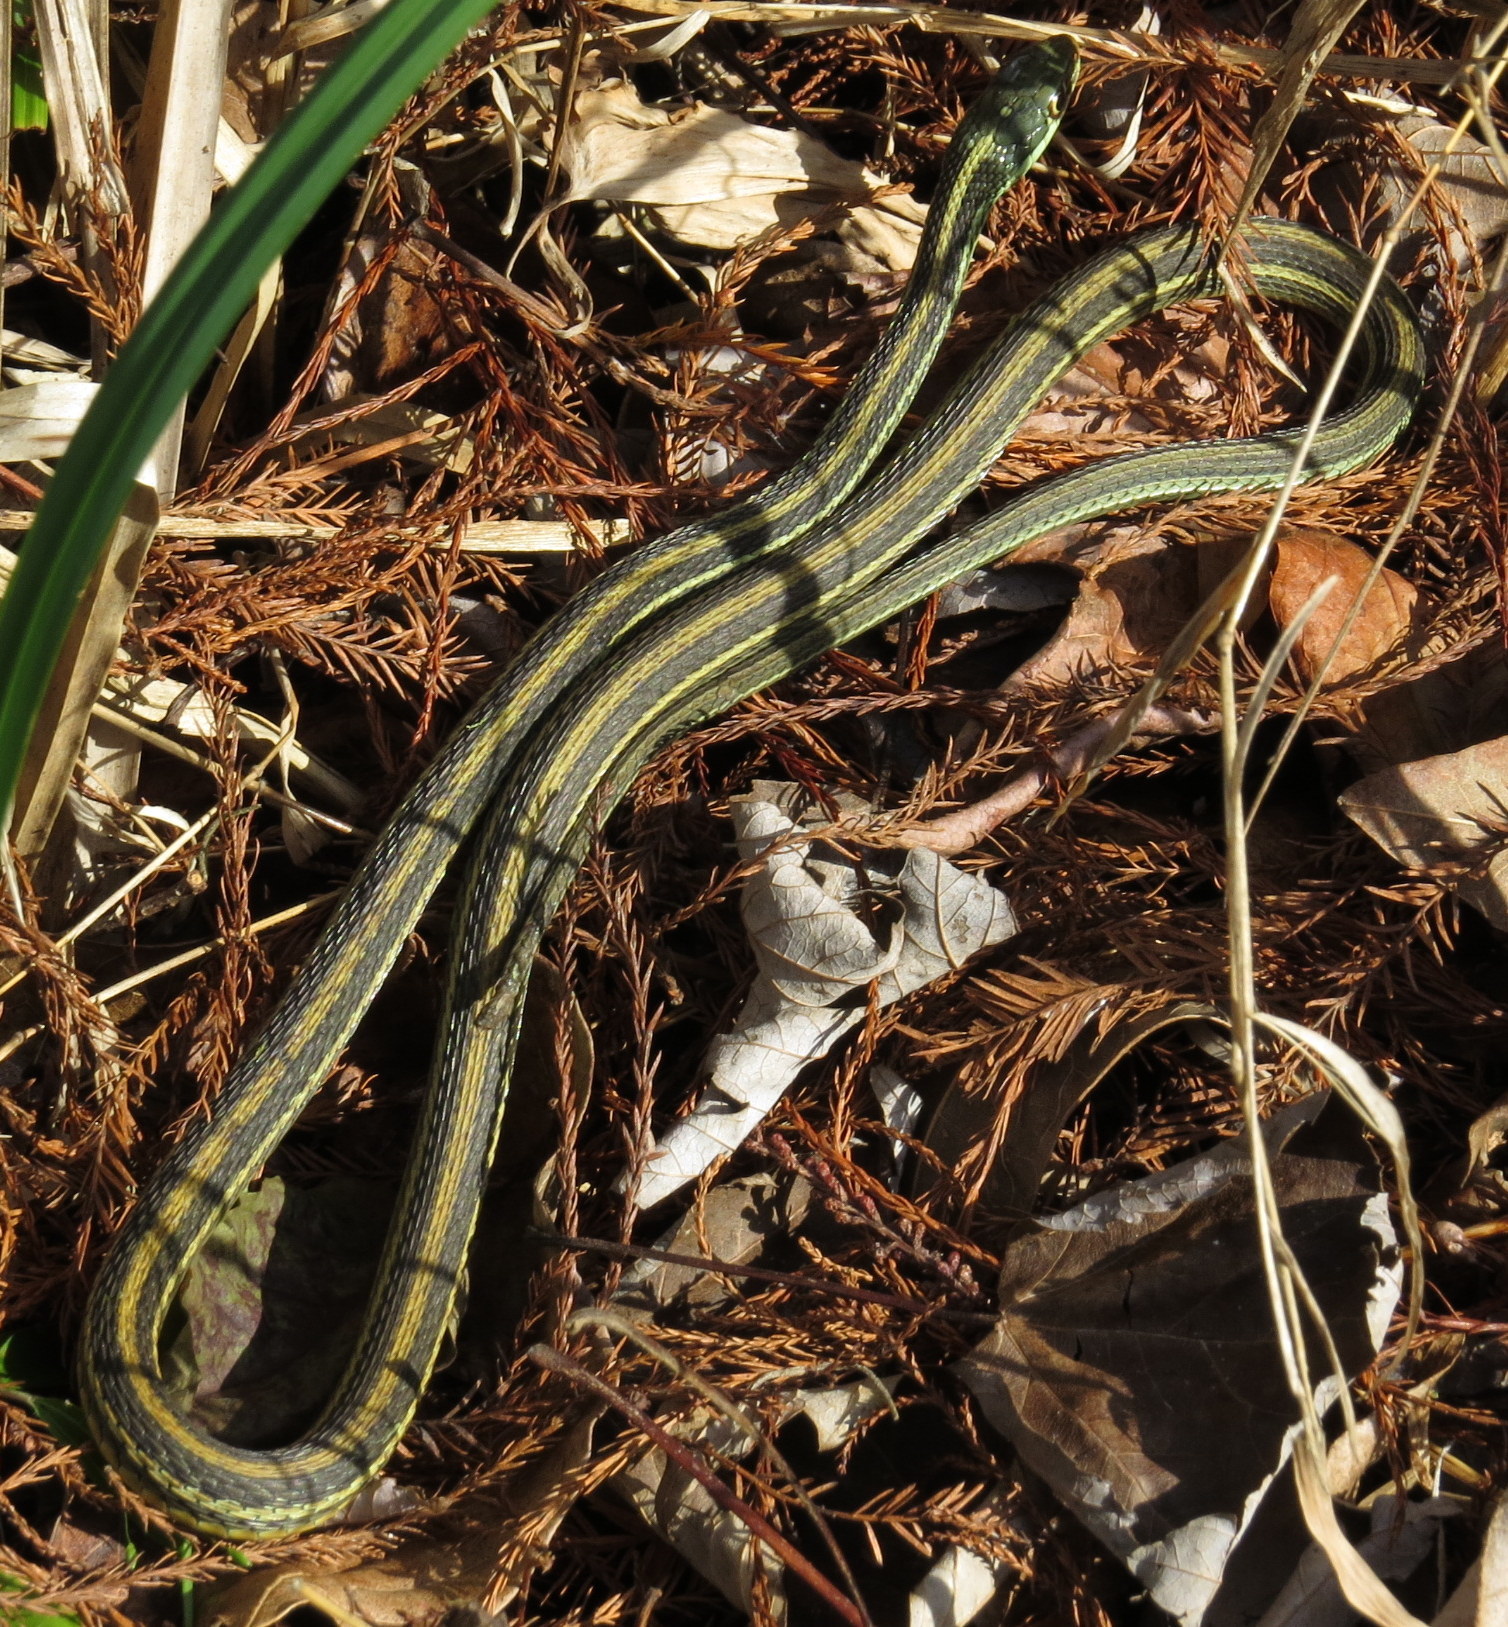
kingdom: Animalia
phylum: Chordata
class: Squamata
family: Colubridae
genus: Thamnophis
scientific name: Thamnophis proximus
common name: Western ribbon snake
